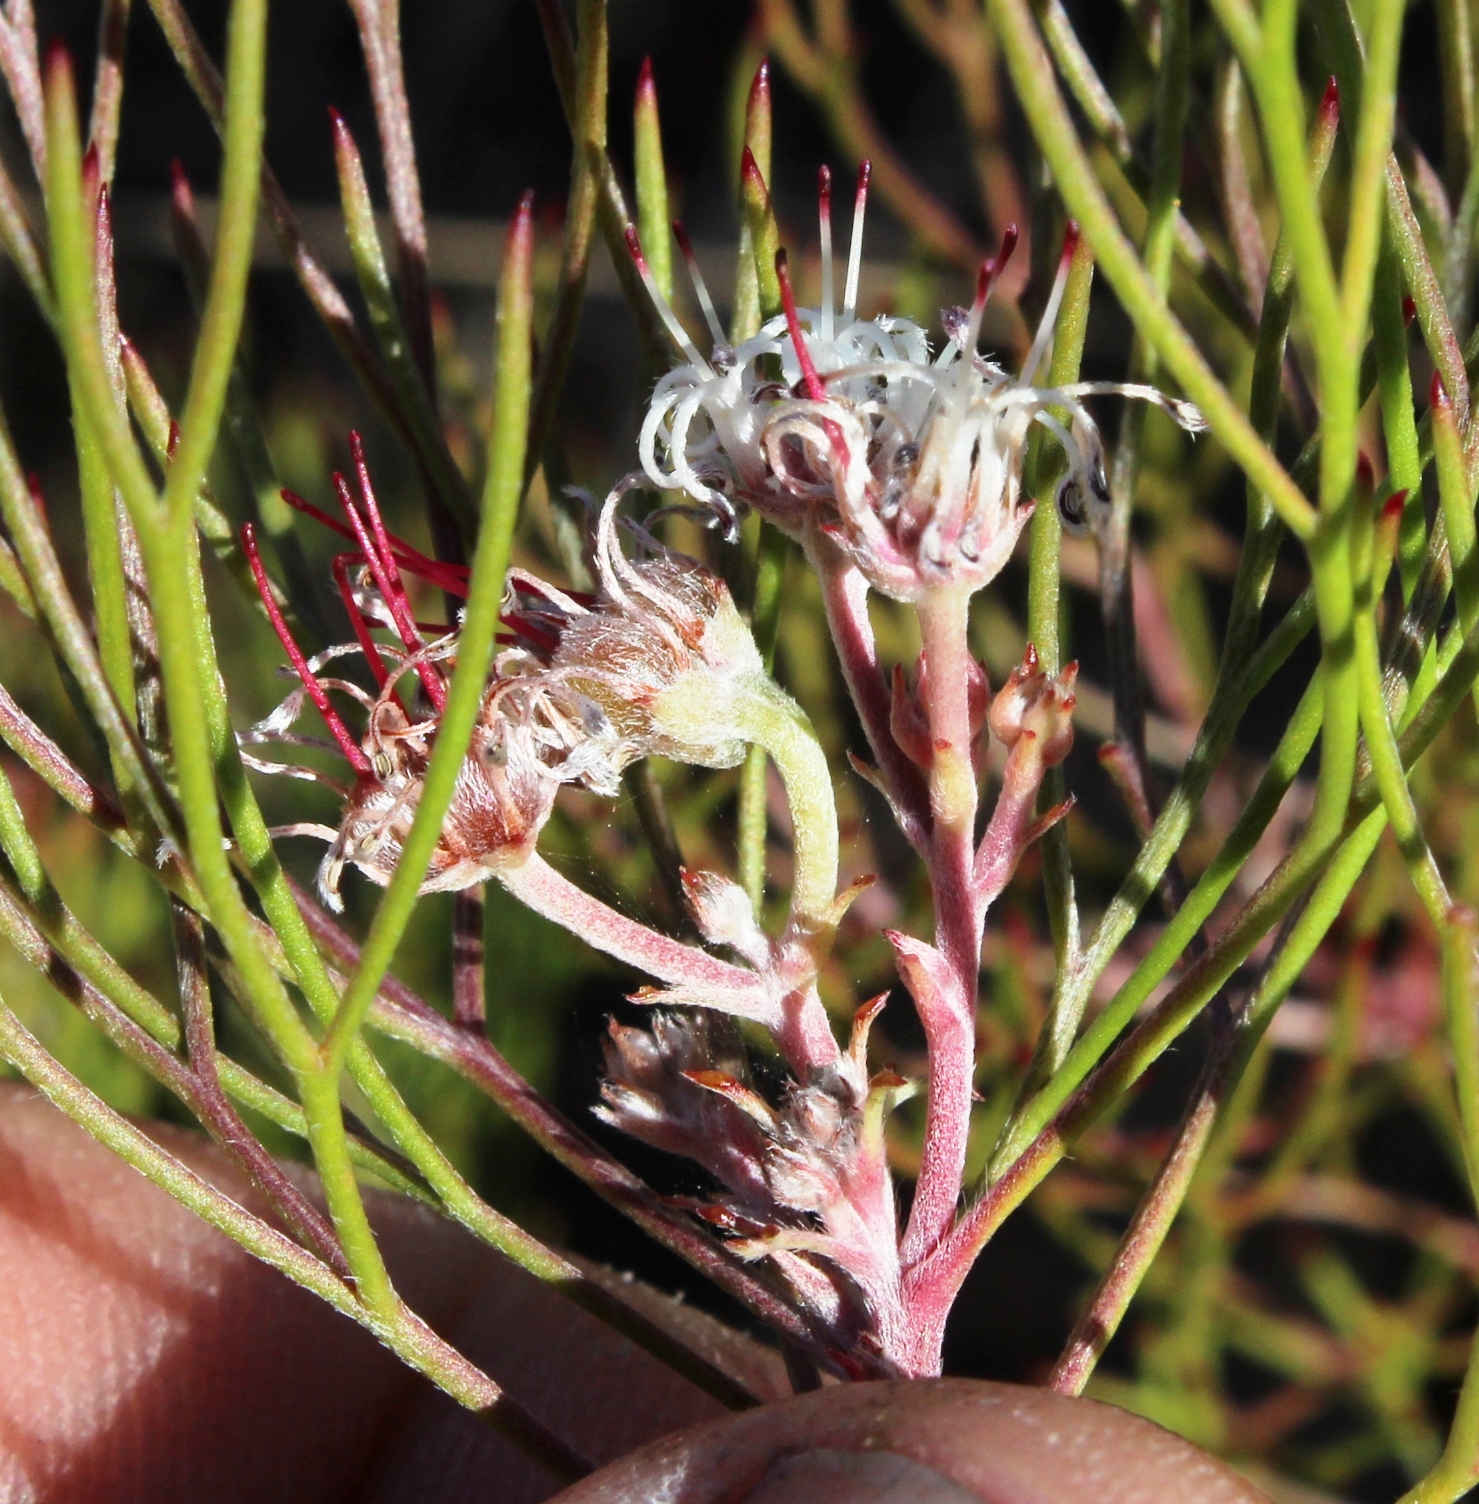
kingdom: Plantae
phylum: Tracheophyta
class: Magnoliopsida
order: Proteales
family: Proteaceae
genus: Serruria
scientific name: Serruria fasciflora
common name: Common pin spiderhead
